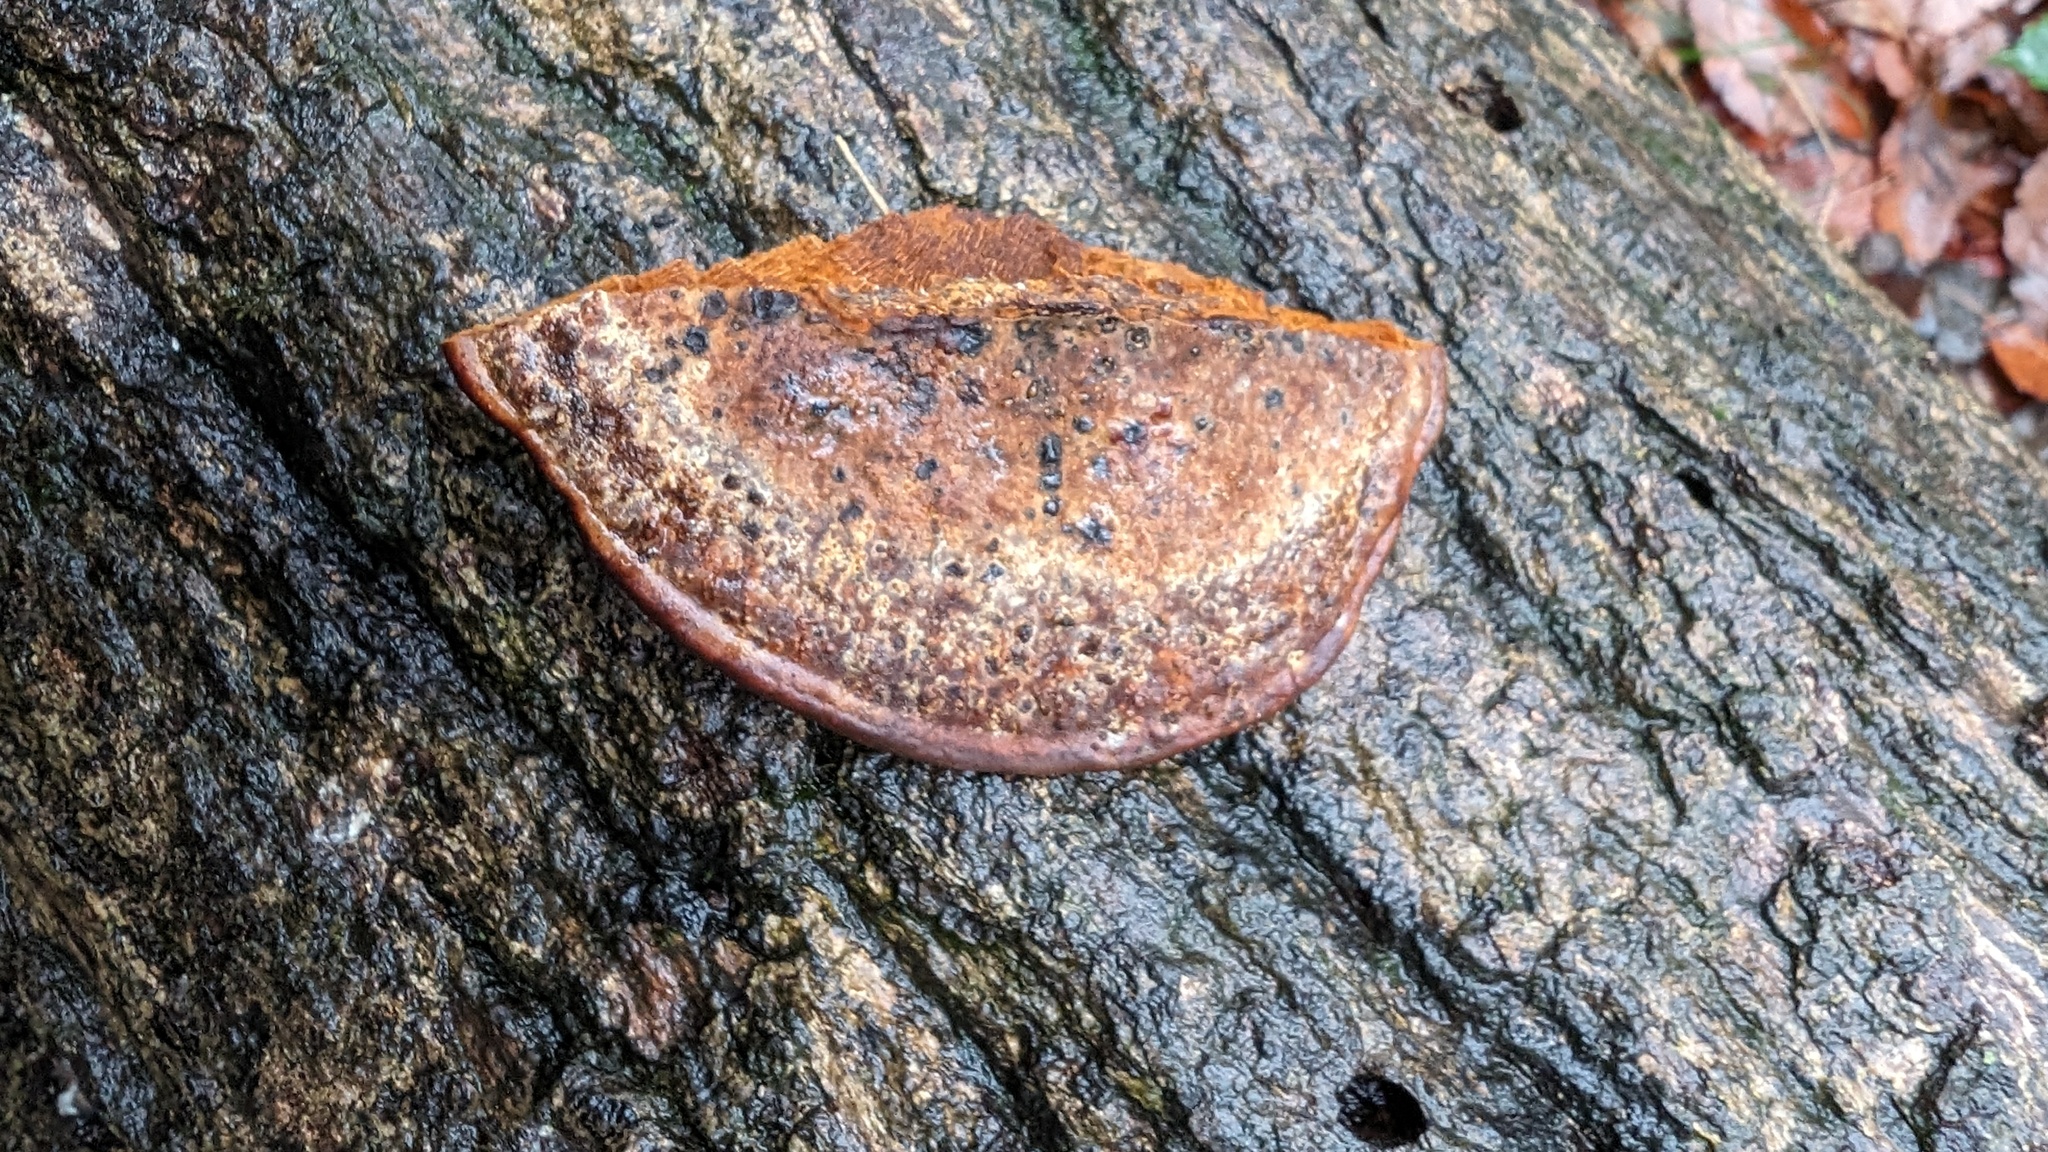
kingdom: Fungi
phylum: Basidiomycota
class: Agaricomycetes
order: Hymenochaetales
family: Hymenochaetaceae
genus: Phellinus
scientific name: Phellinus gilvus
